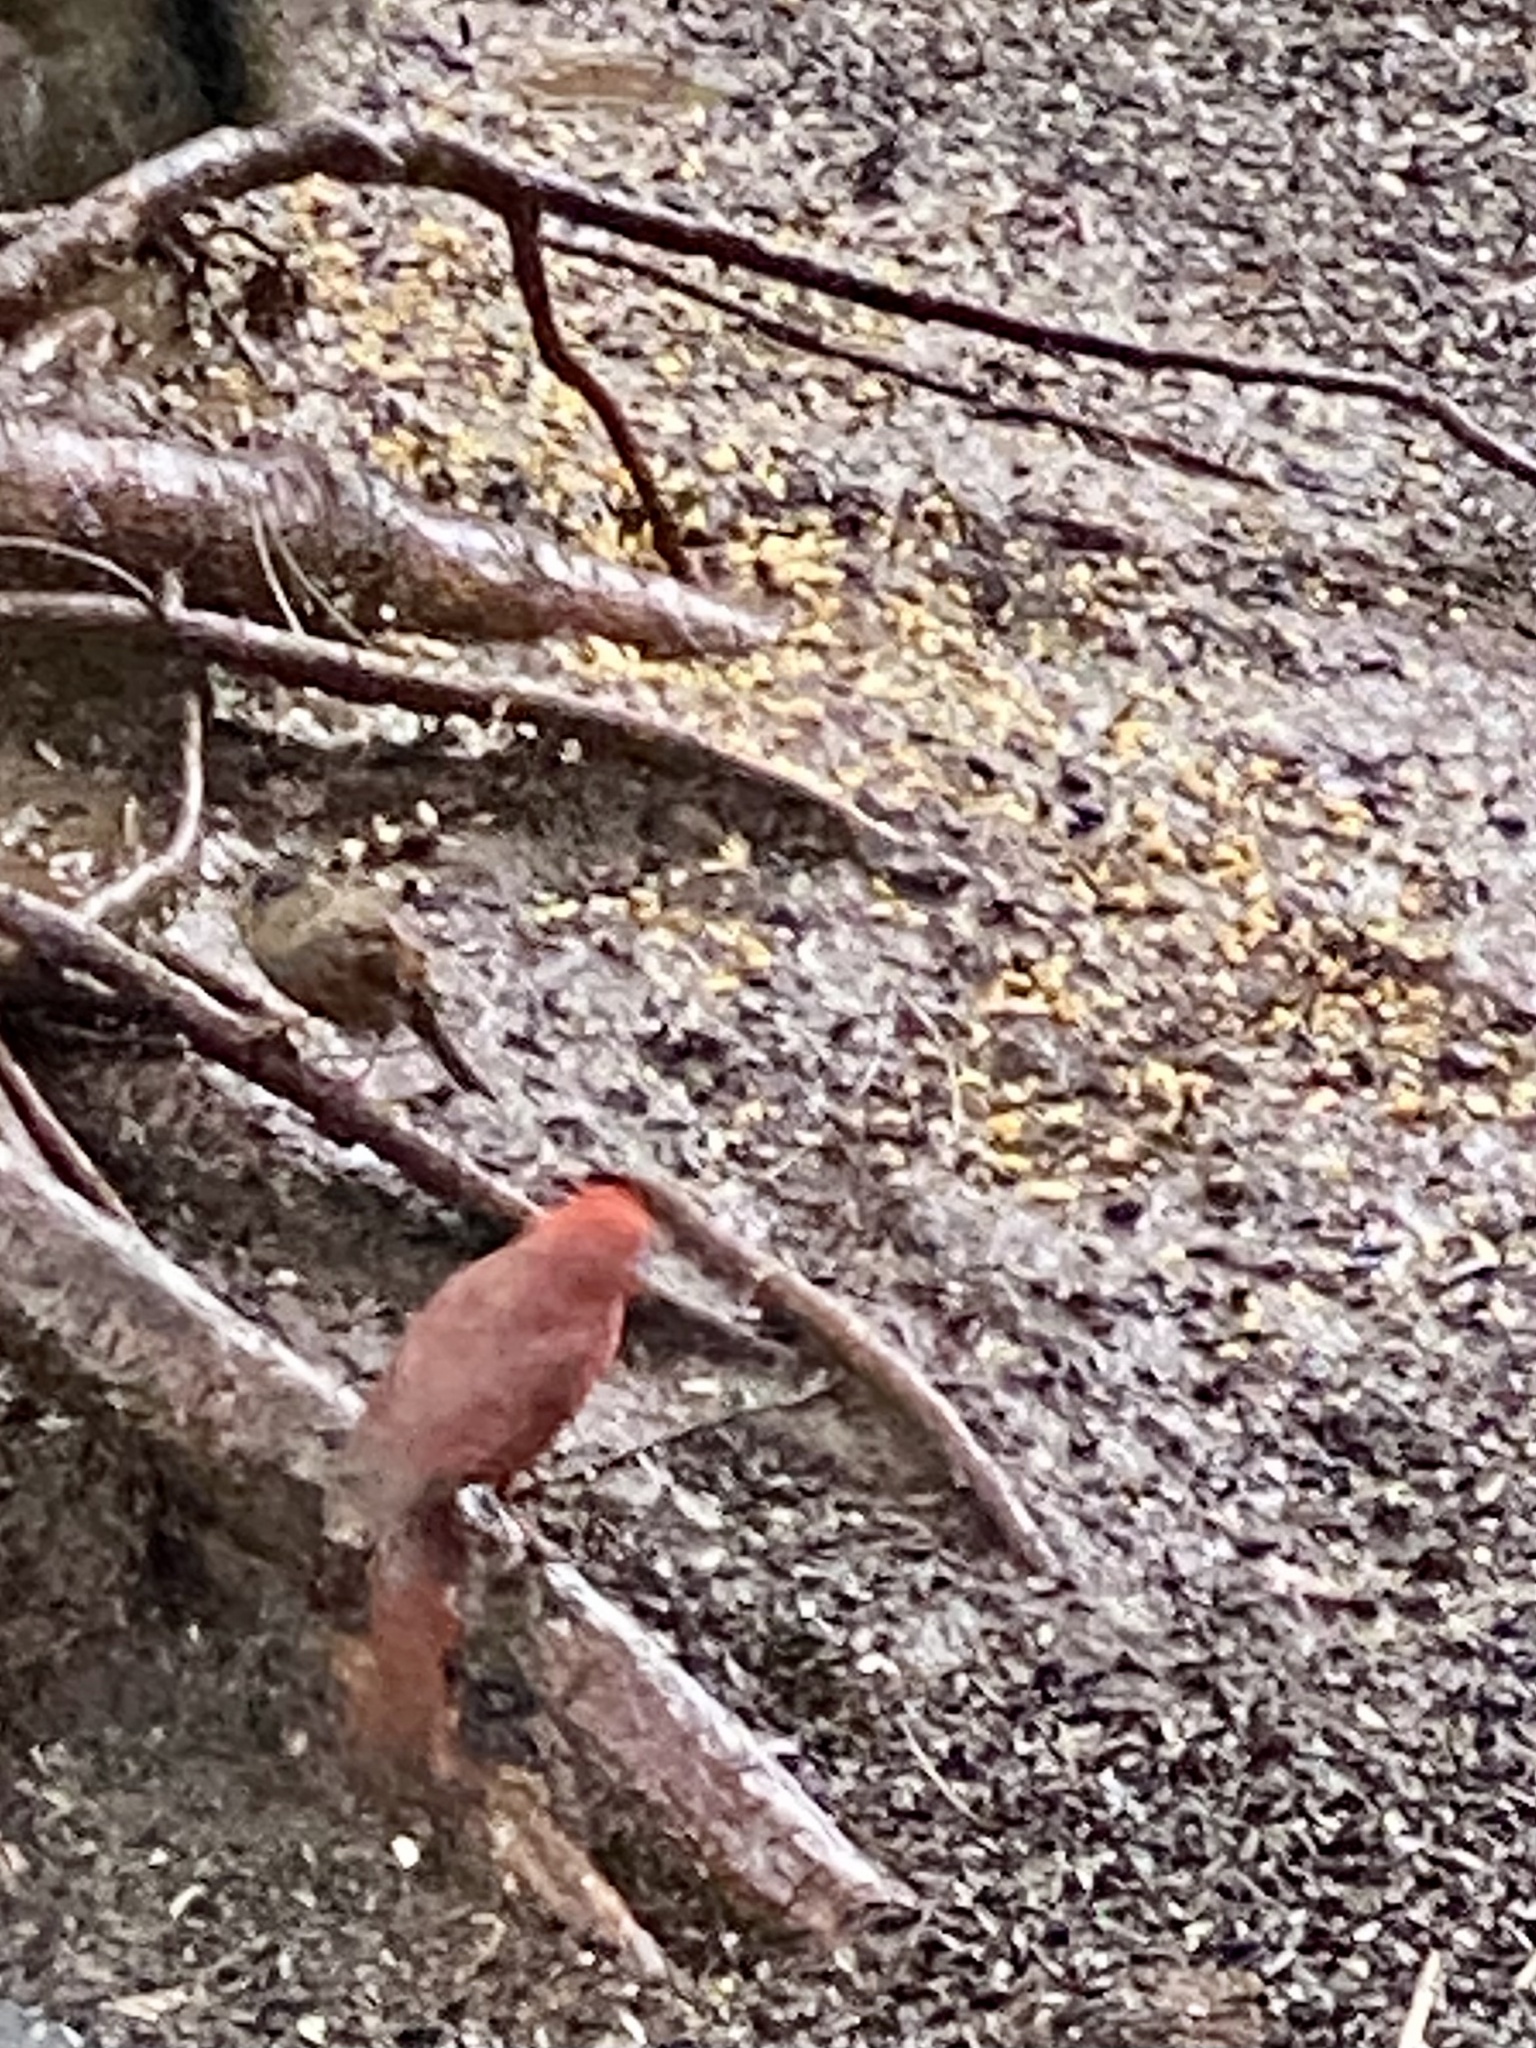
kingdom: Animalia
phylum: Chordata
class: Aves
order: Passeriformes
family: Cardinalidae
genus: Cardinalis
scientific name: Cardinalis cardinalis
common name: Northern cardinal
